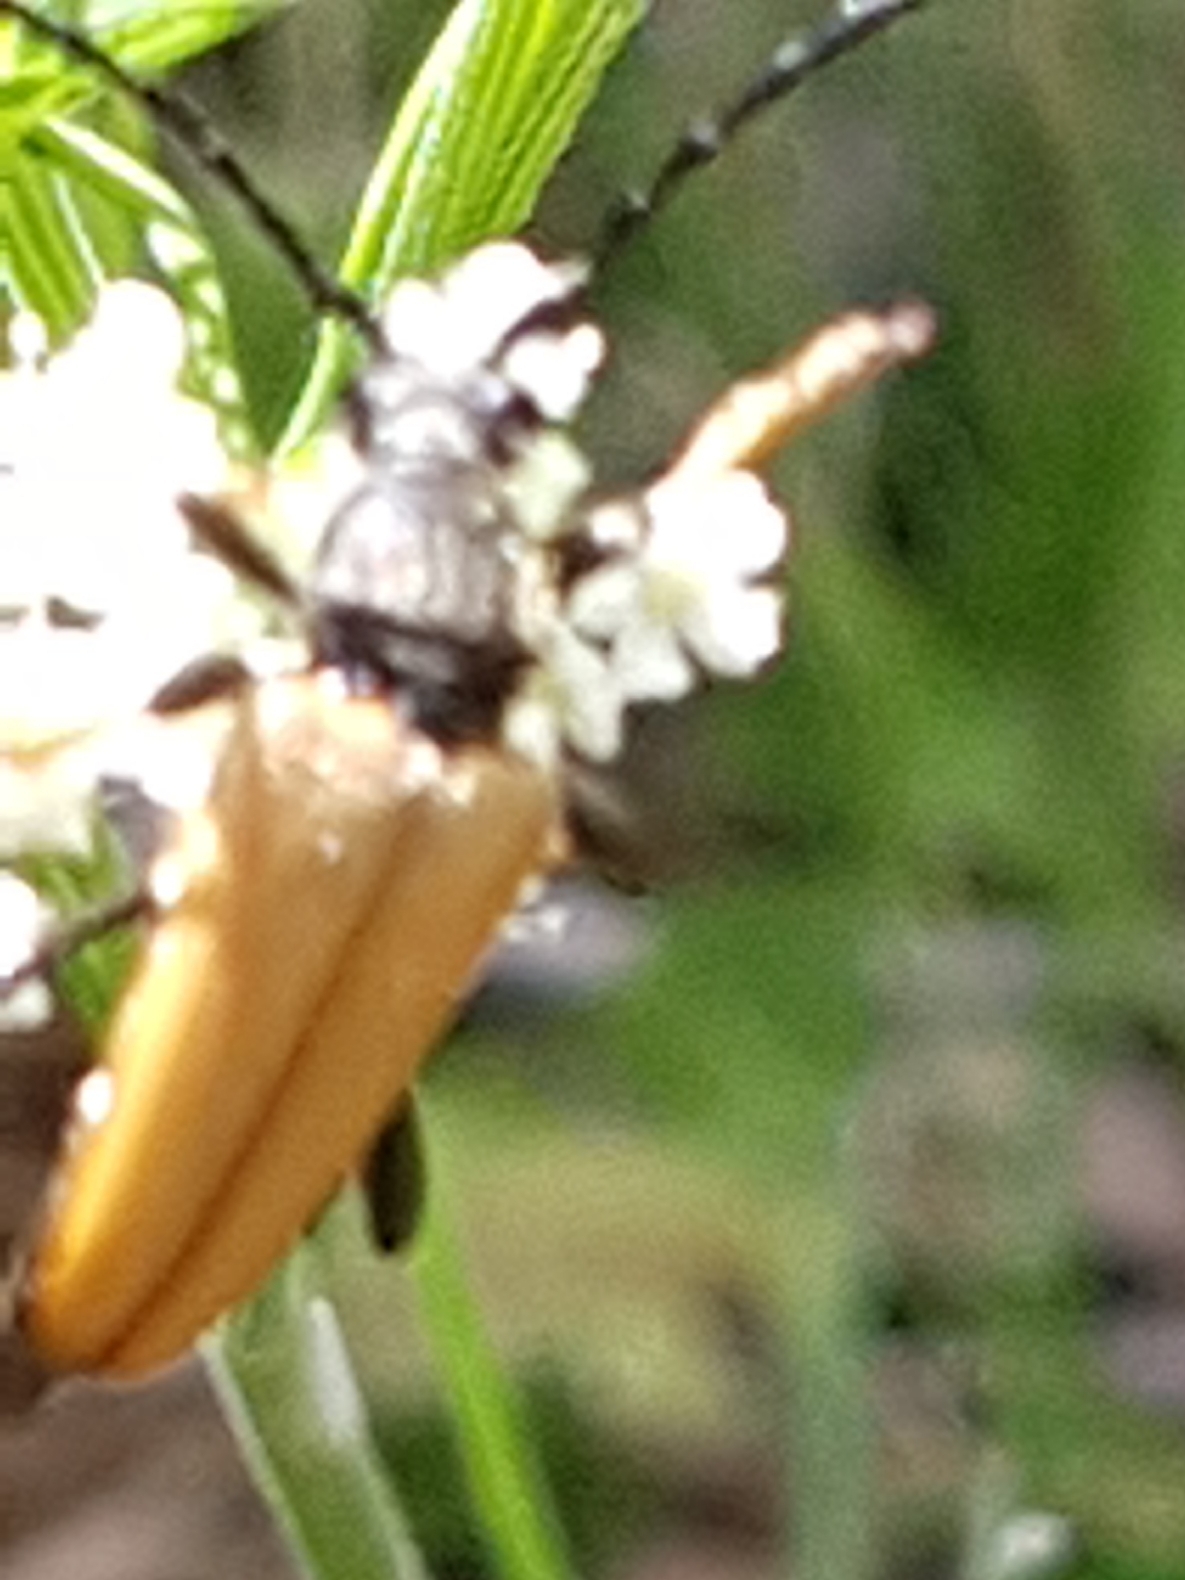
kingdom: Animalia
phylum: Arthropoda
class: Insecta
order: Coleoptera
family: Cerambycidae
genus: Stictoleptura
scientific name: Stictoleptura rubra
